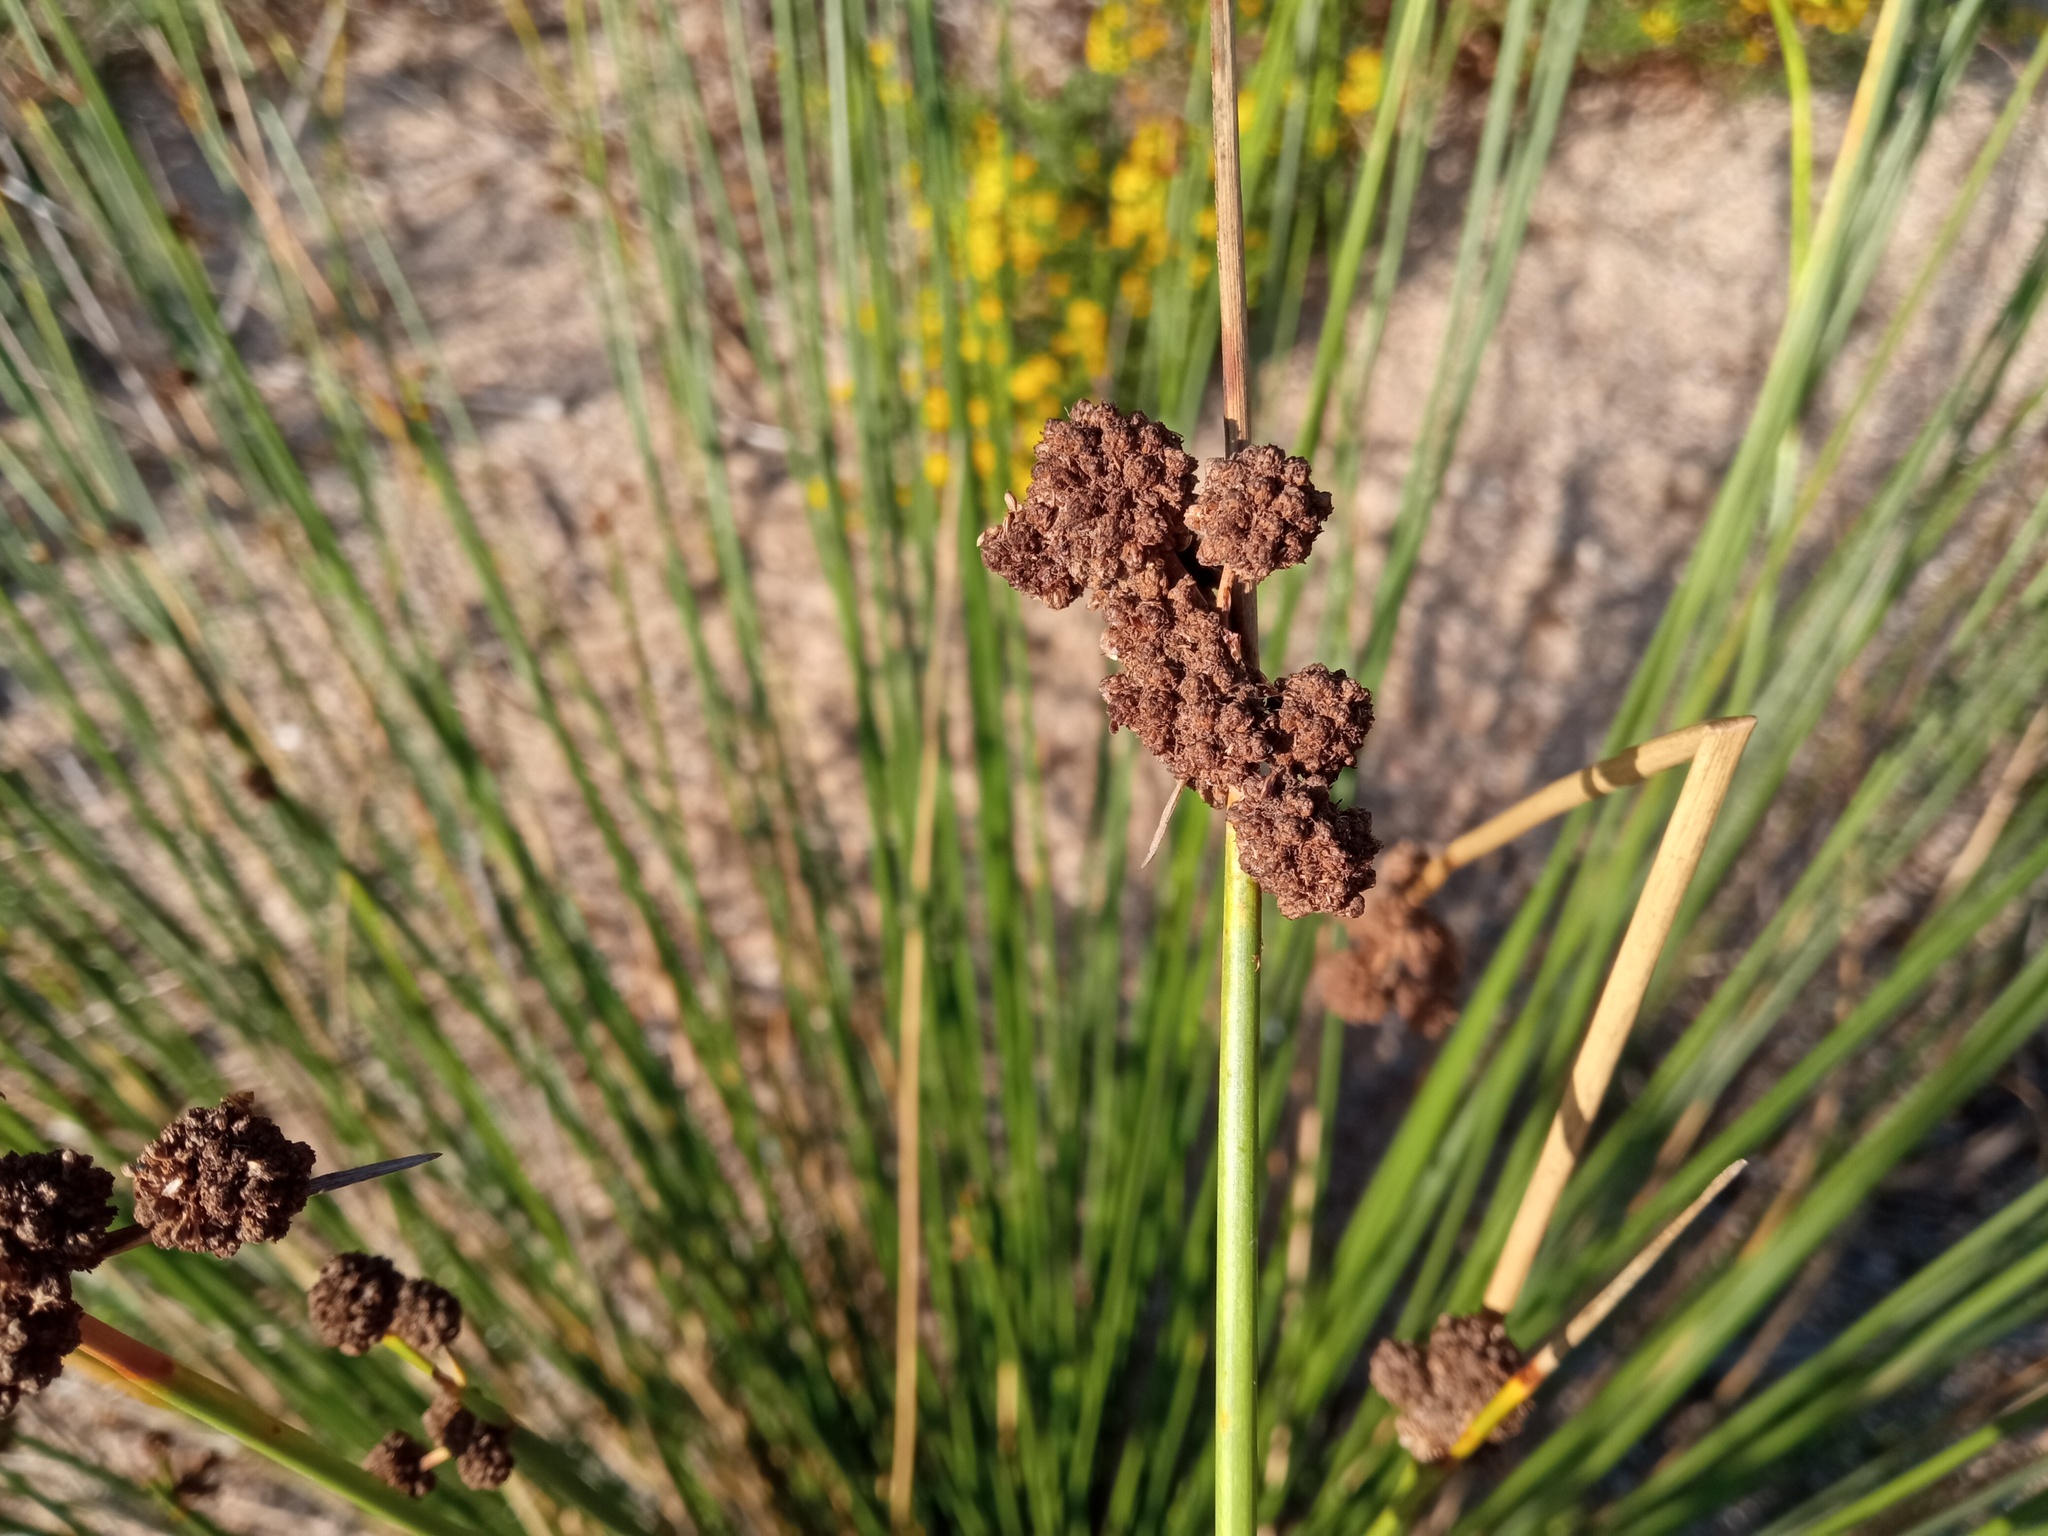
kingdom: Plantae
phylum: Tracheophyta
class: Liliopsida
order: Poales
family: Cyperaceae
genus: Scirpoides
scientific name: Scirpoides holoschoenus
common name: Round-headed club-rush
